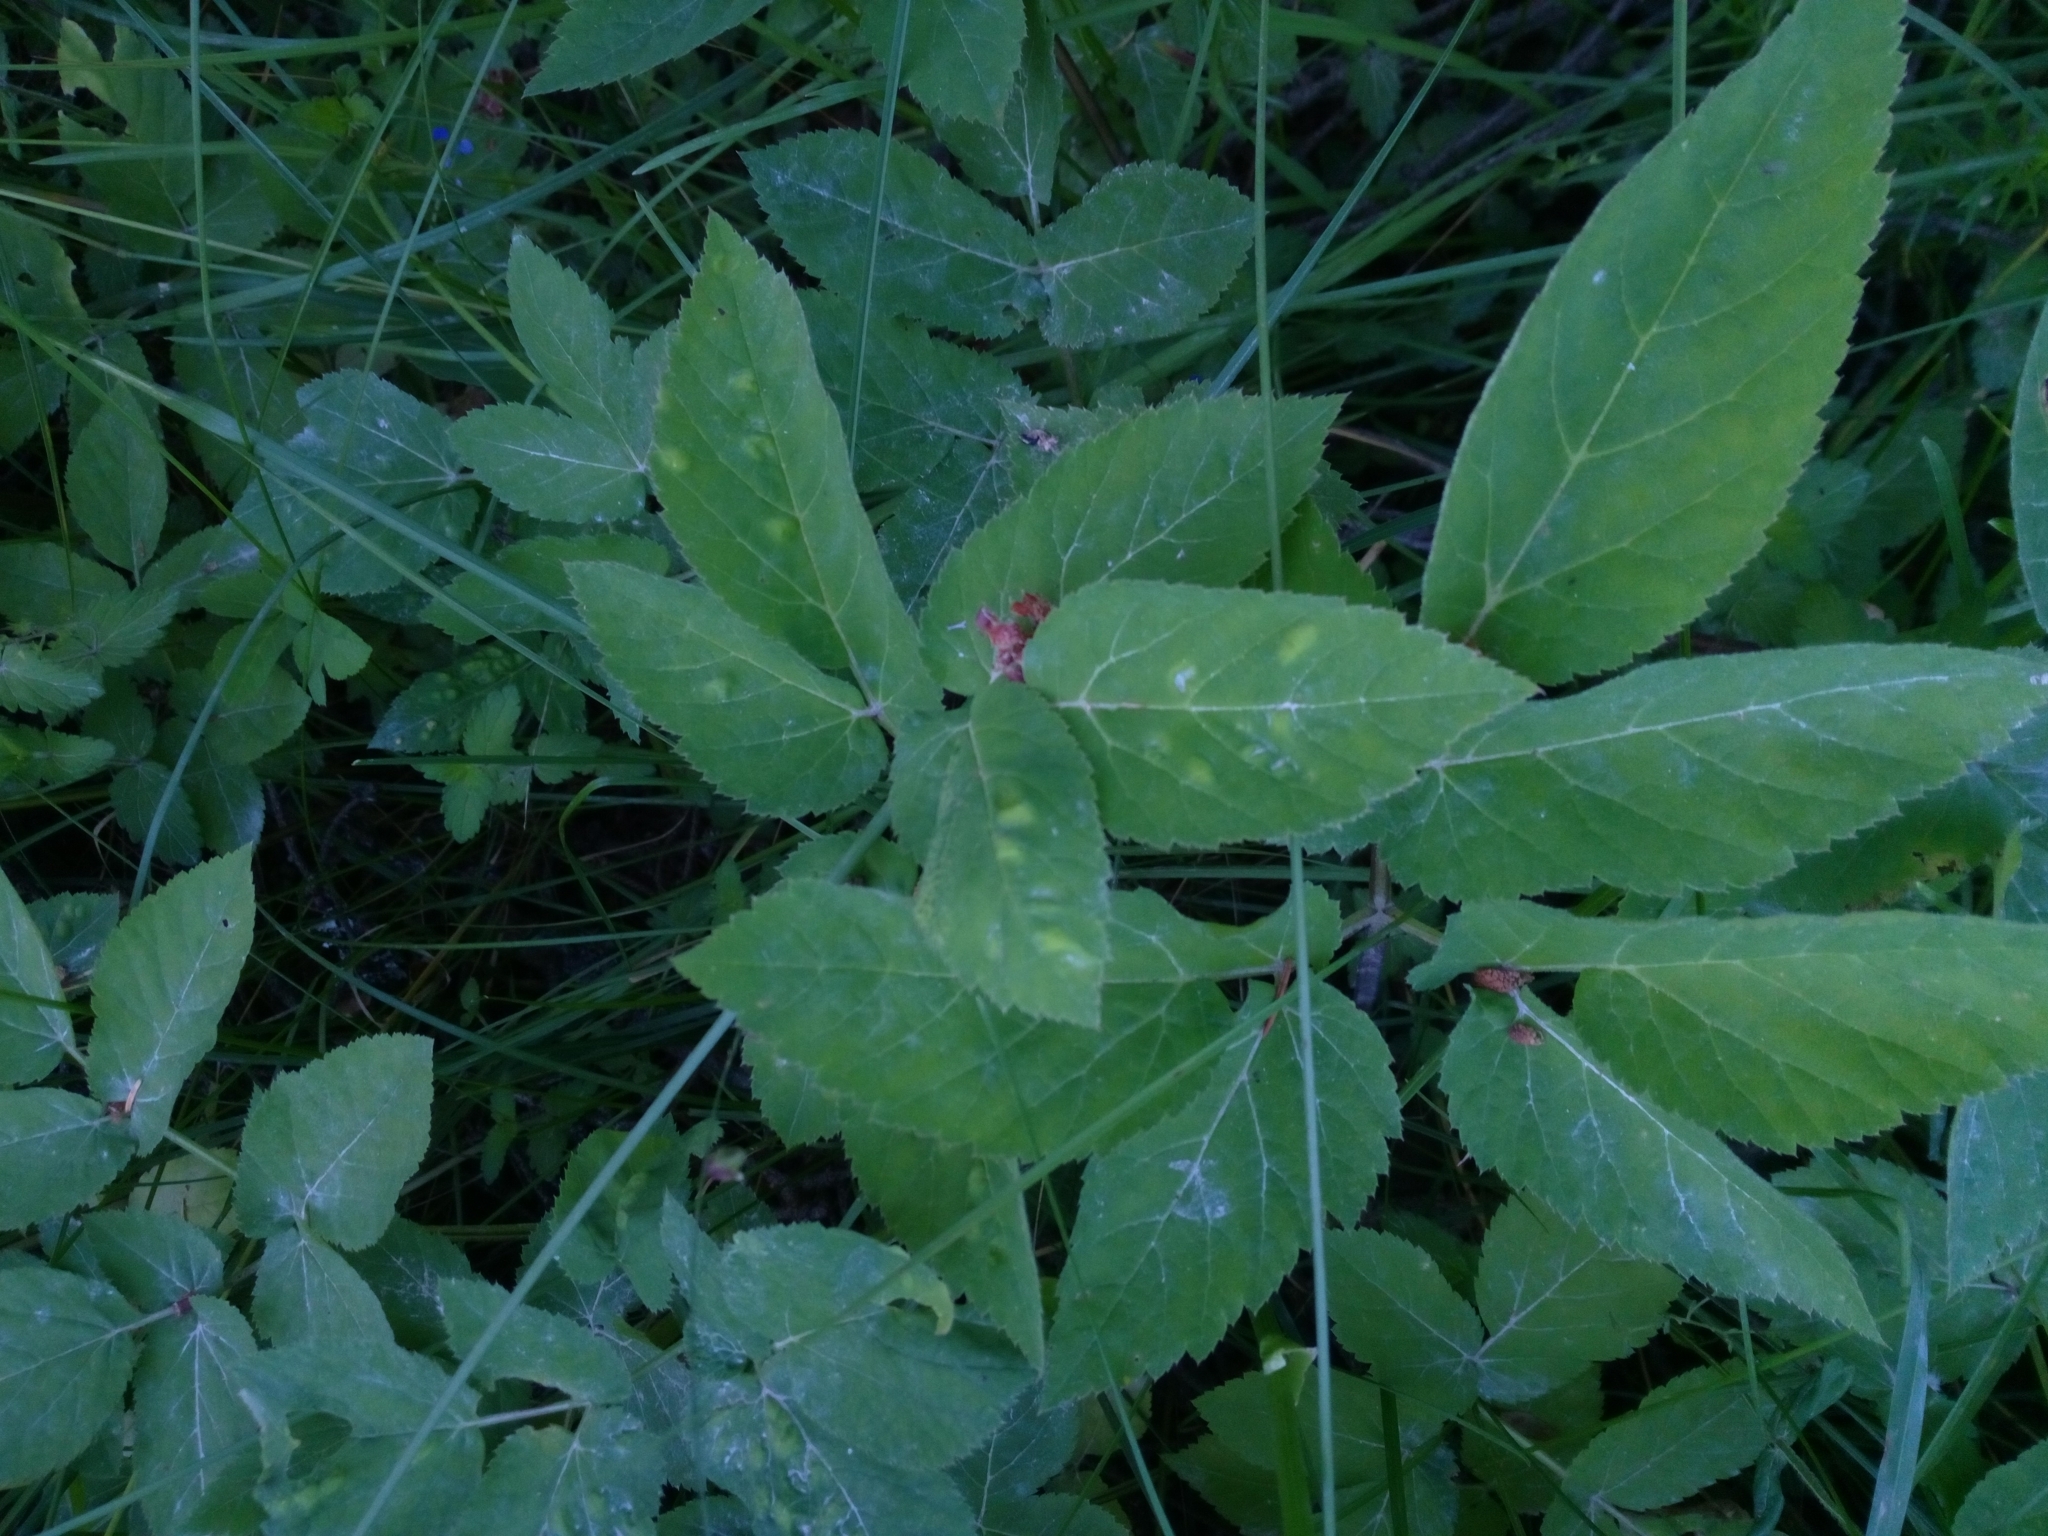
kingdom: Plantae
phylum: Tracheophyta
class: Magnoliopsida
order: Apiales
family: Apiaceae
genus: Aegopodium
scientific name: Aegopodium podagraria
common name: Ground-elder
